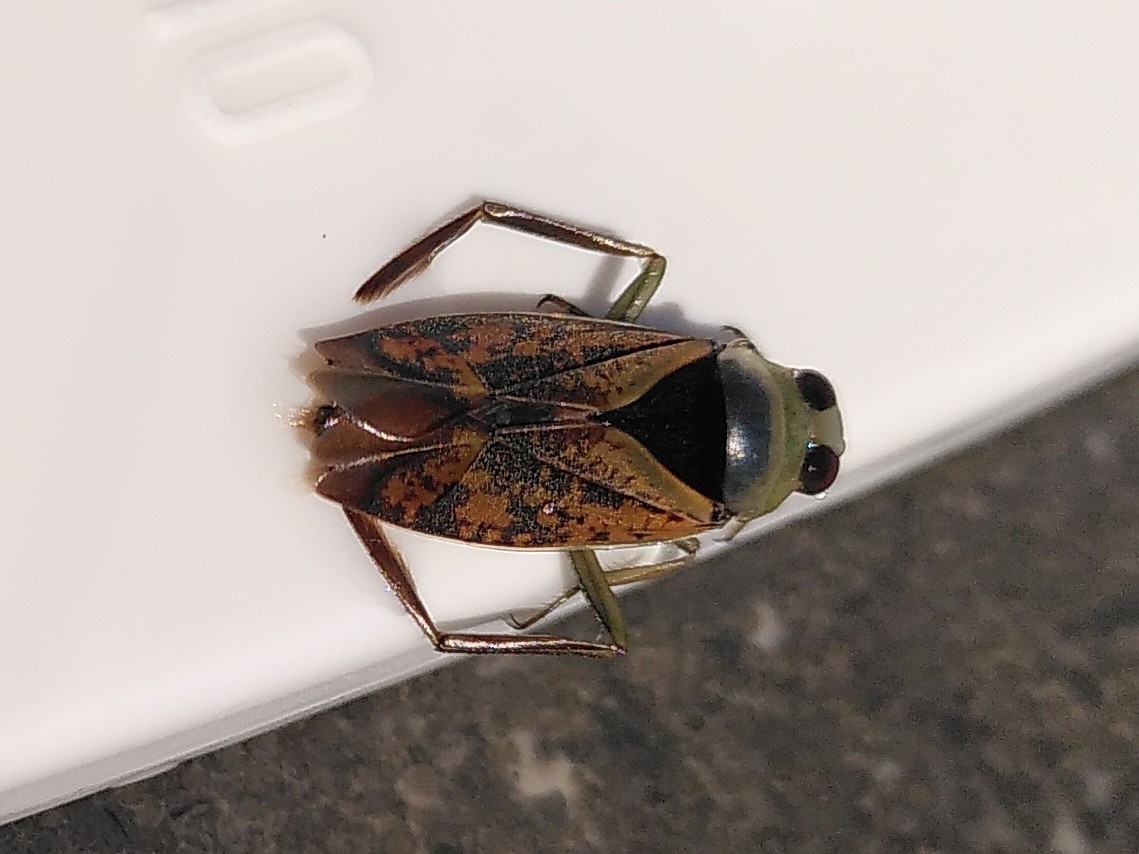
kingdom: Animalia
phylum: Arthropoda
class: Insecta
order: Hemiptera
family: Notonectidae
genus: Notonecta
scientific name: Notonecta maculata
